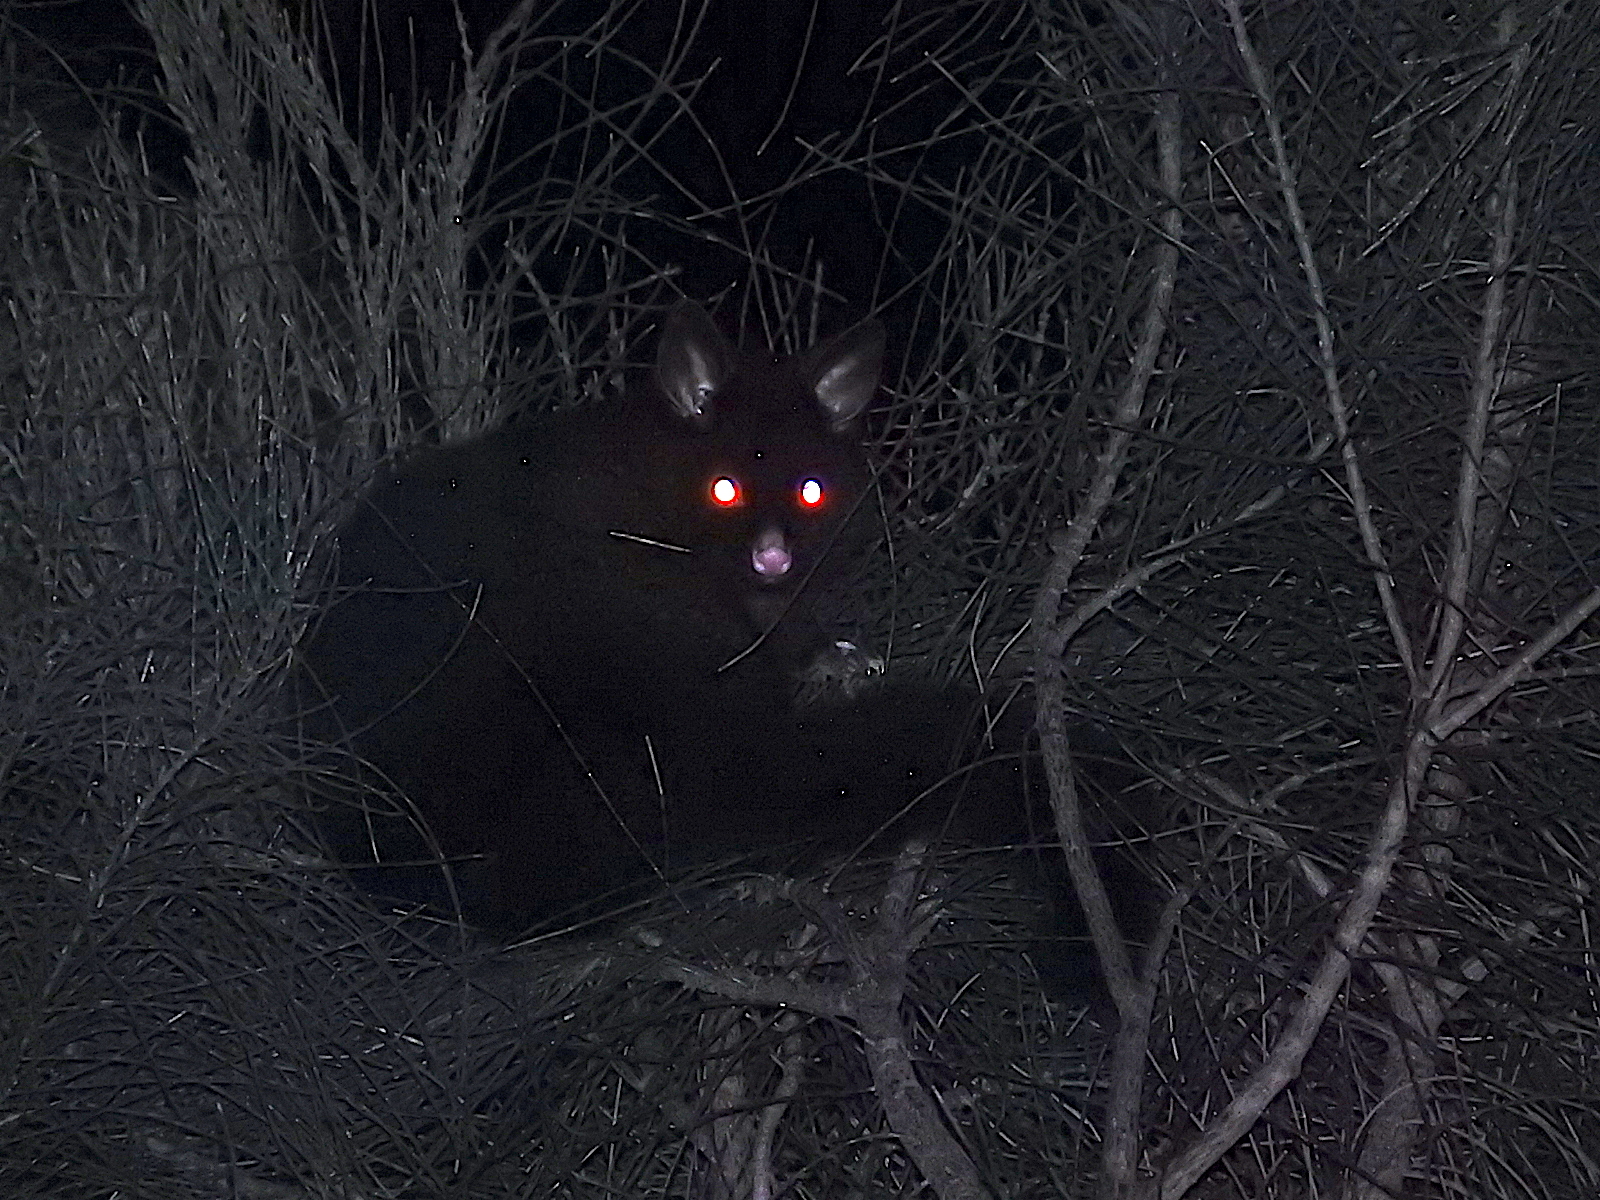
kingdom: Animalia
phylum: Chordata
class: Mammalia
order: Diprotodontia
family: Phalangeridae
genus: Trichosurus
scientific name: Trichosurus vulpecula
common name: Common brushtail
